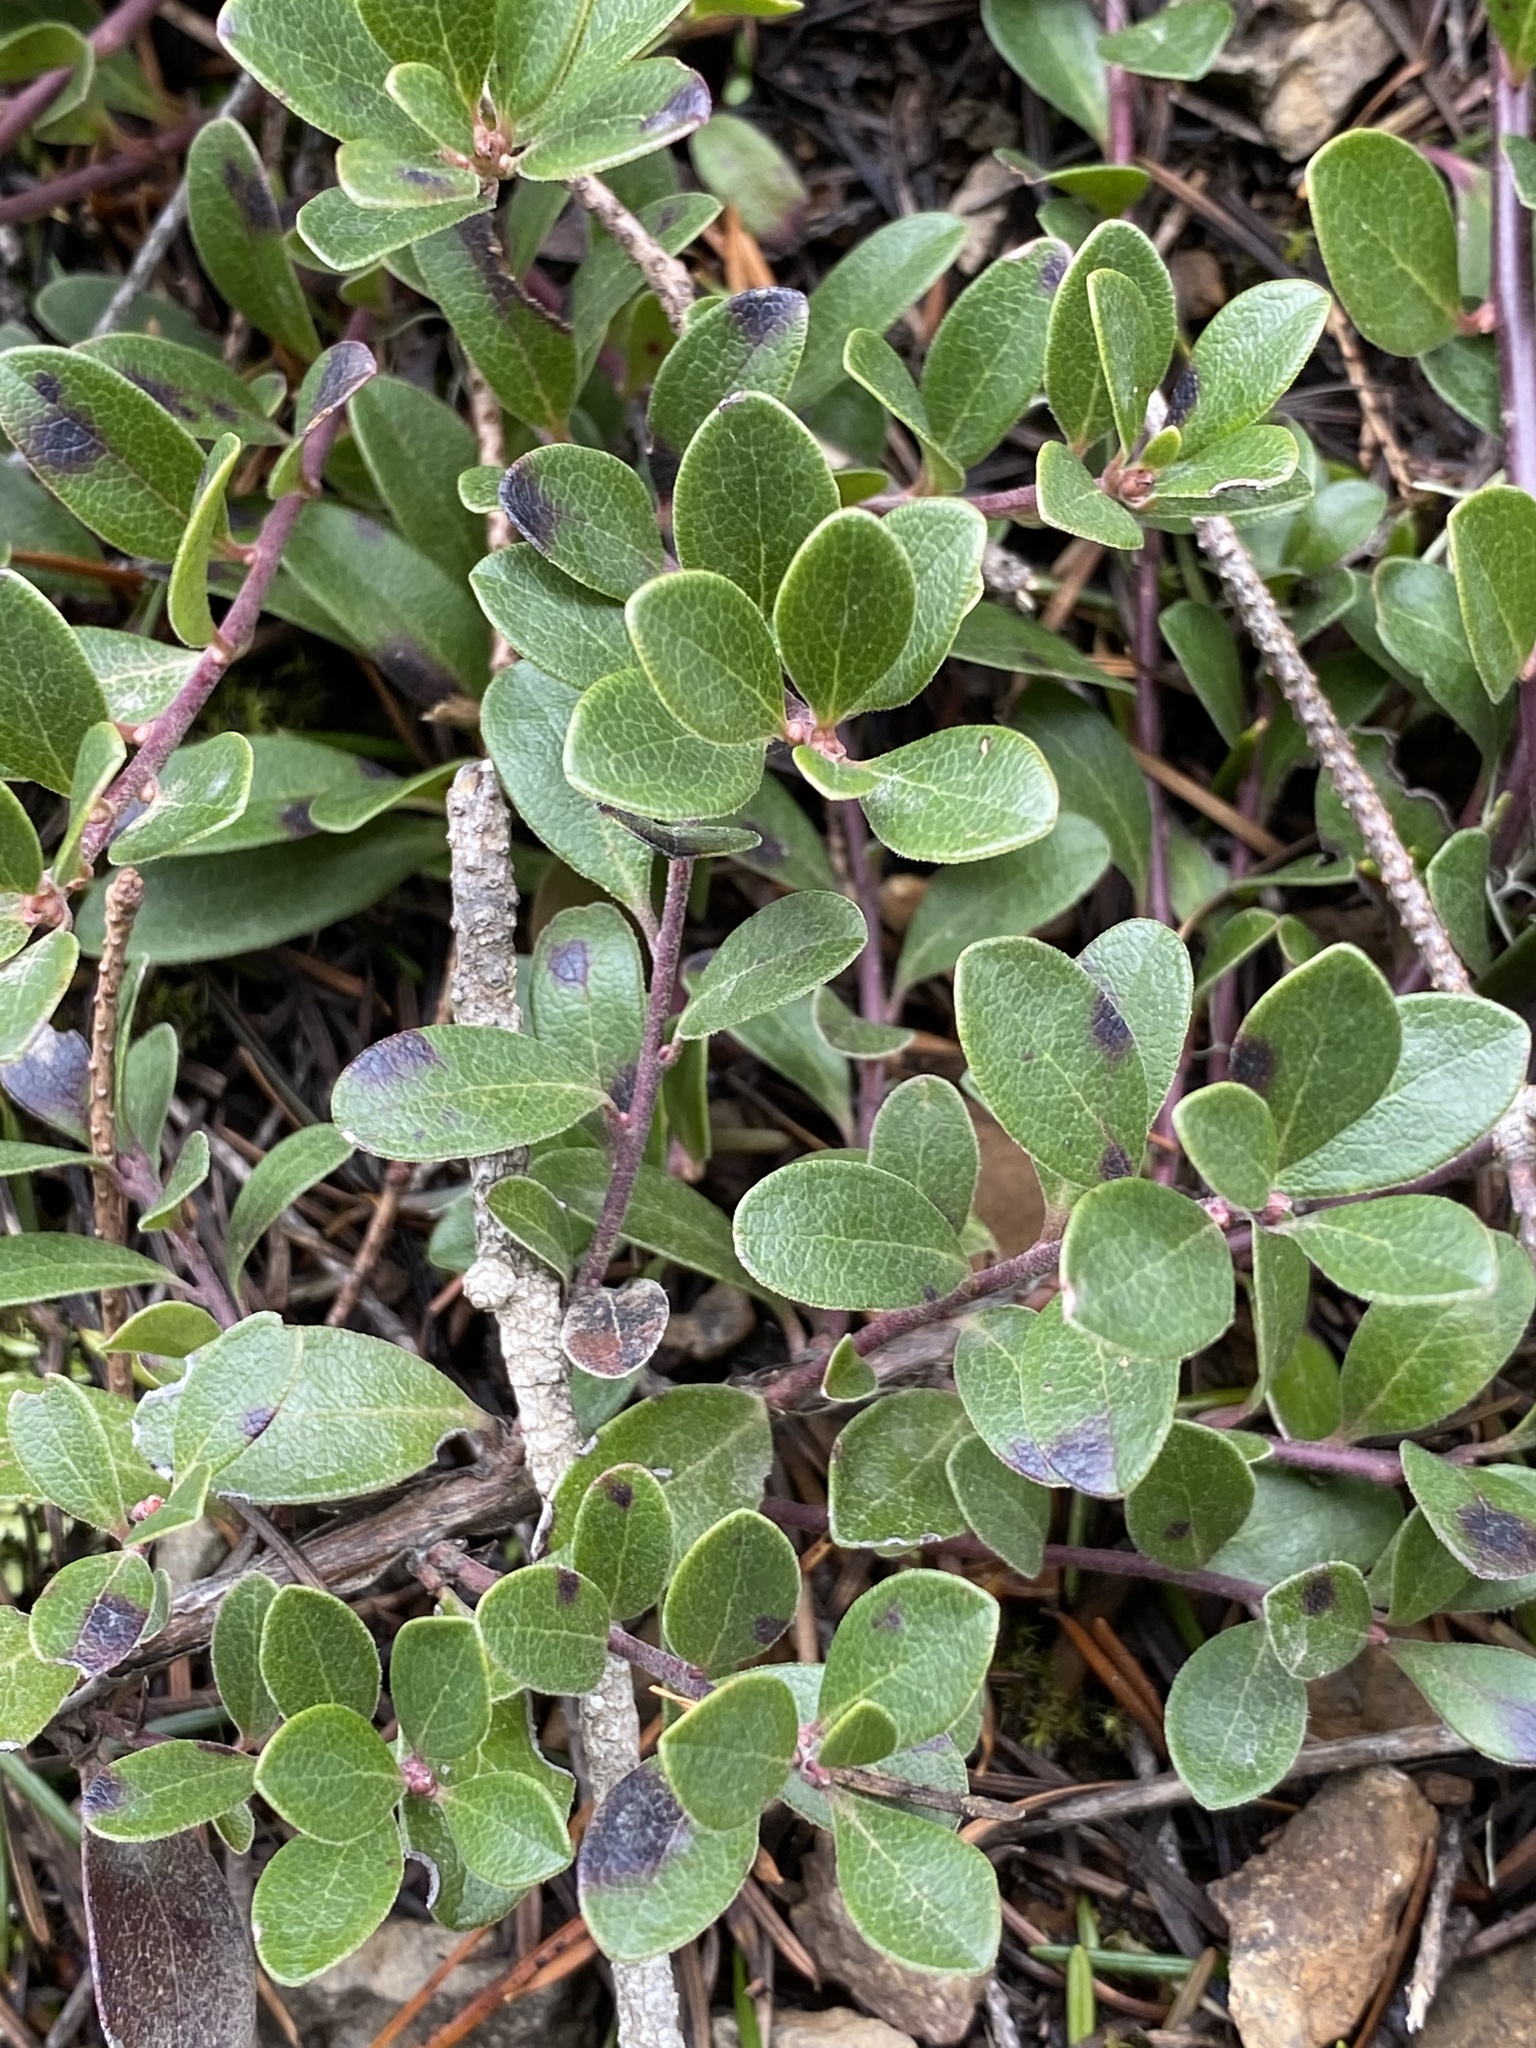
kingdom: Plantae
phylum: Tracheophyta
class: Magnoliopsida
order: Ericales
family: Ericaceae
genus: Arctostaphylos
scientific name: Arctostaphylos uva-ursi
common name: Bearberry
